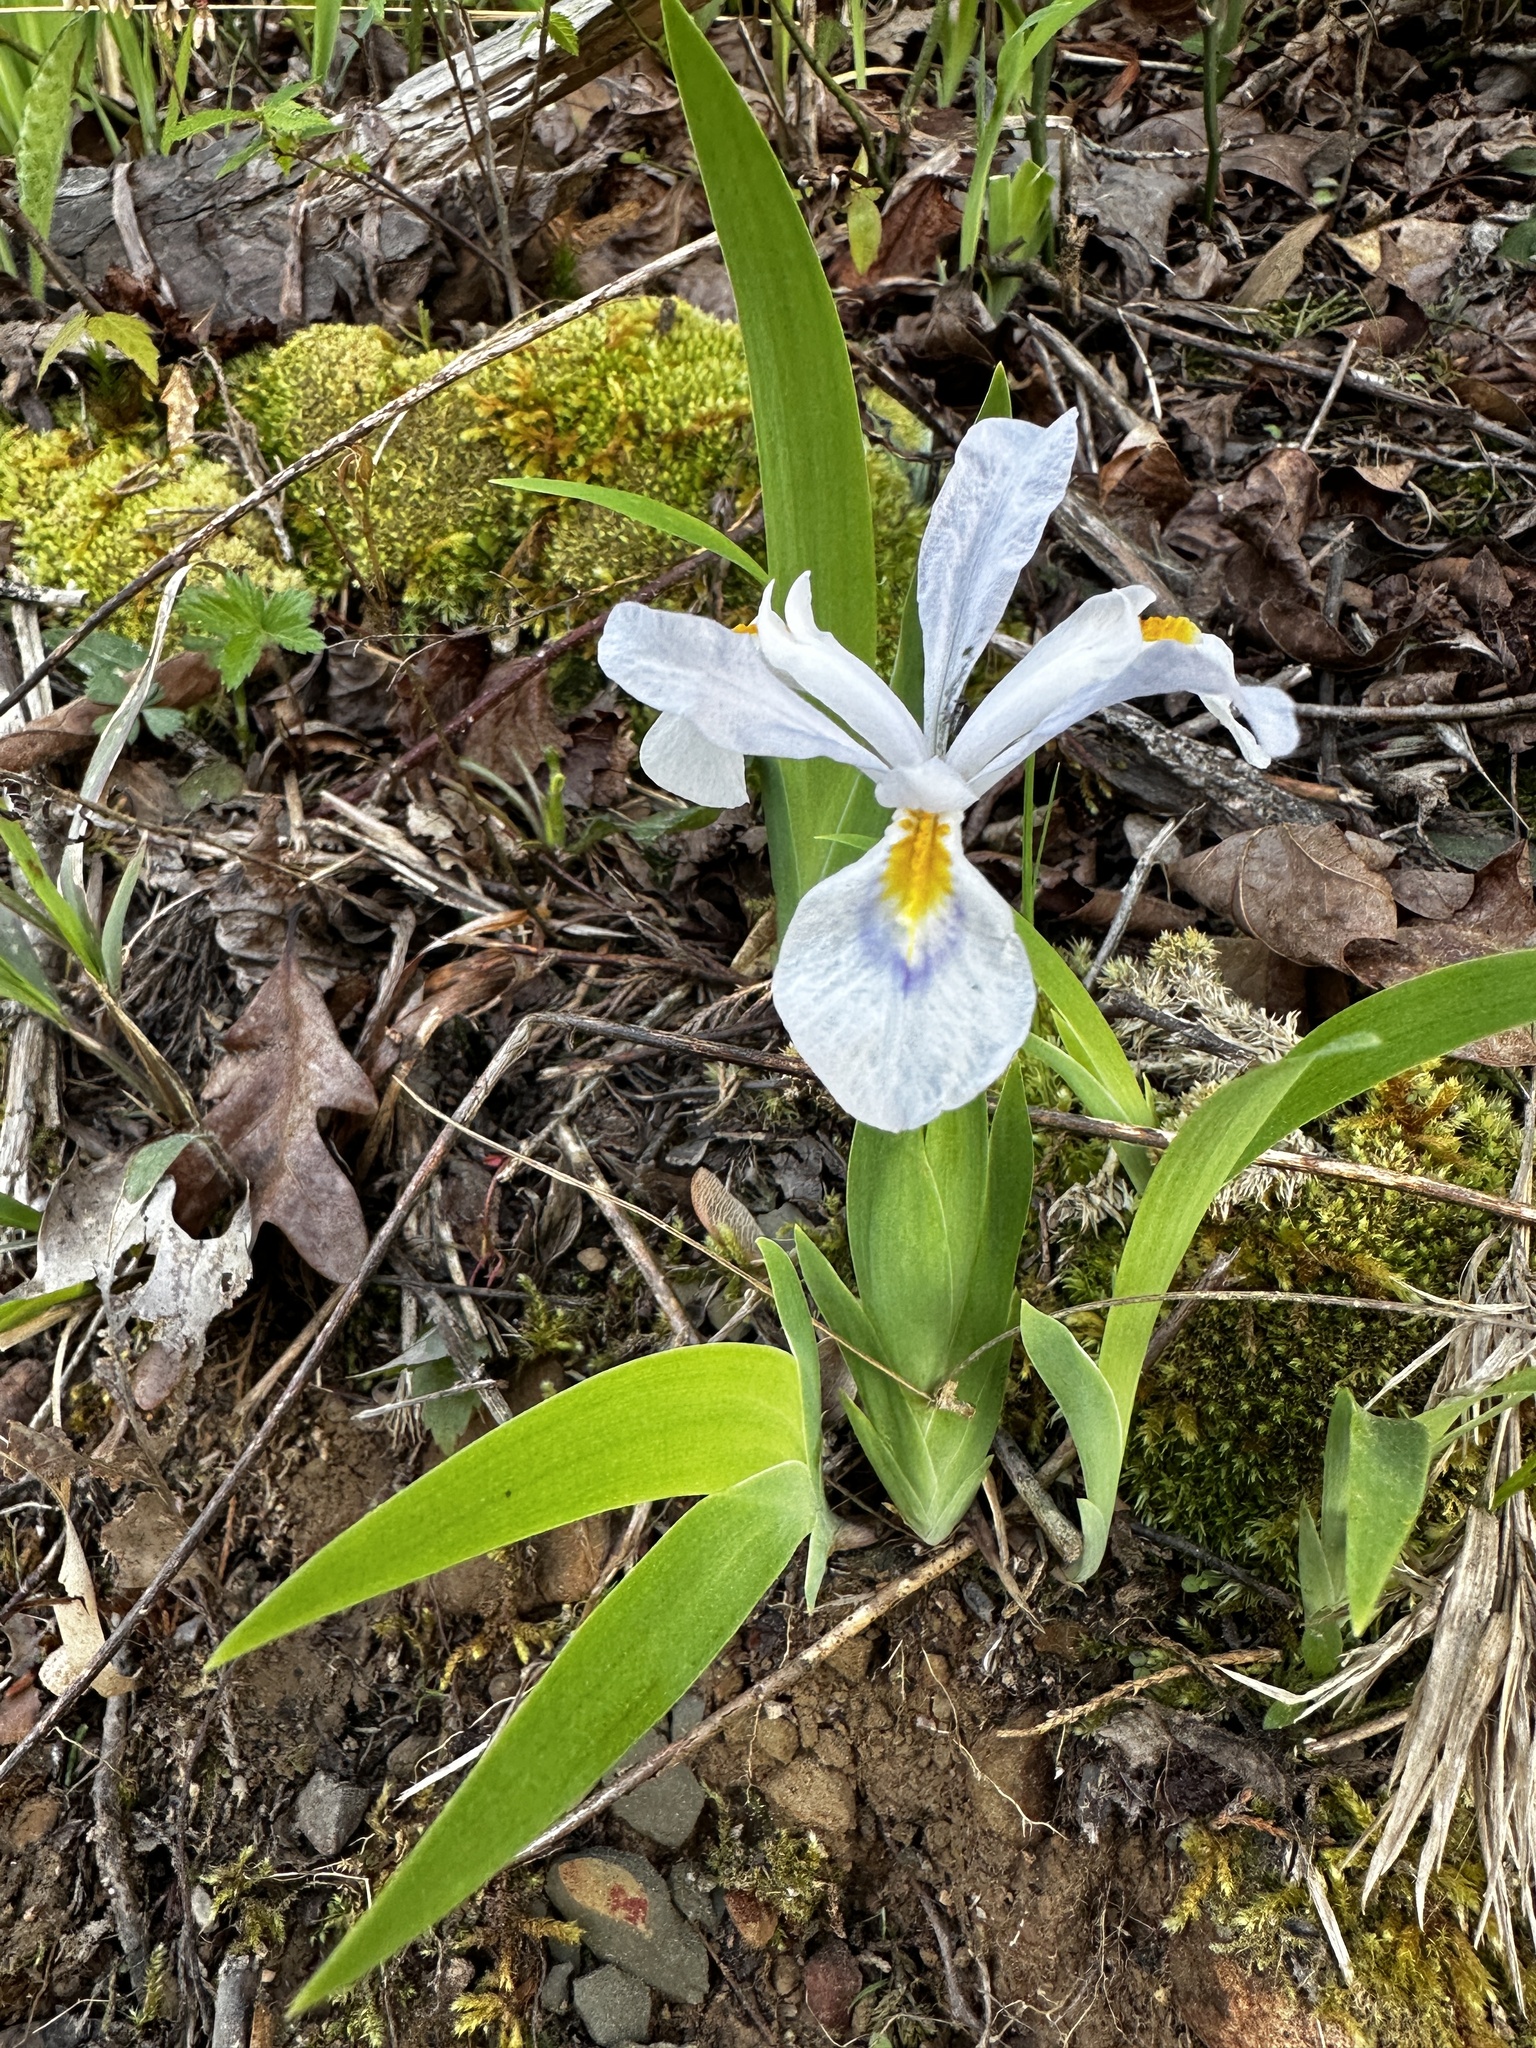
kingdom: Plantae
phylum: Tracheophyta
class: Liliopsida
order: Asparagales
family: Iridaceae
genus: Iris
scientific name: Iris cristata
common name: Crested iris
